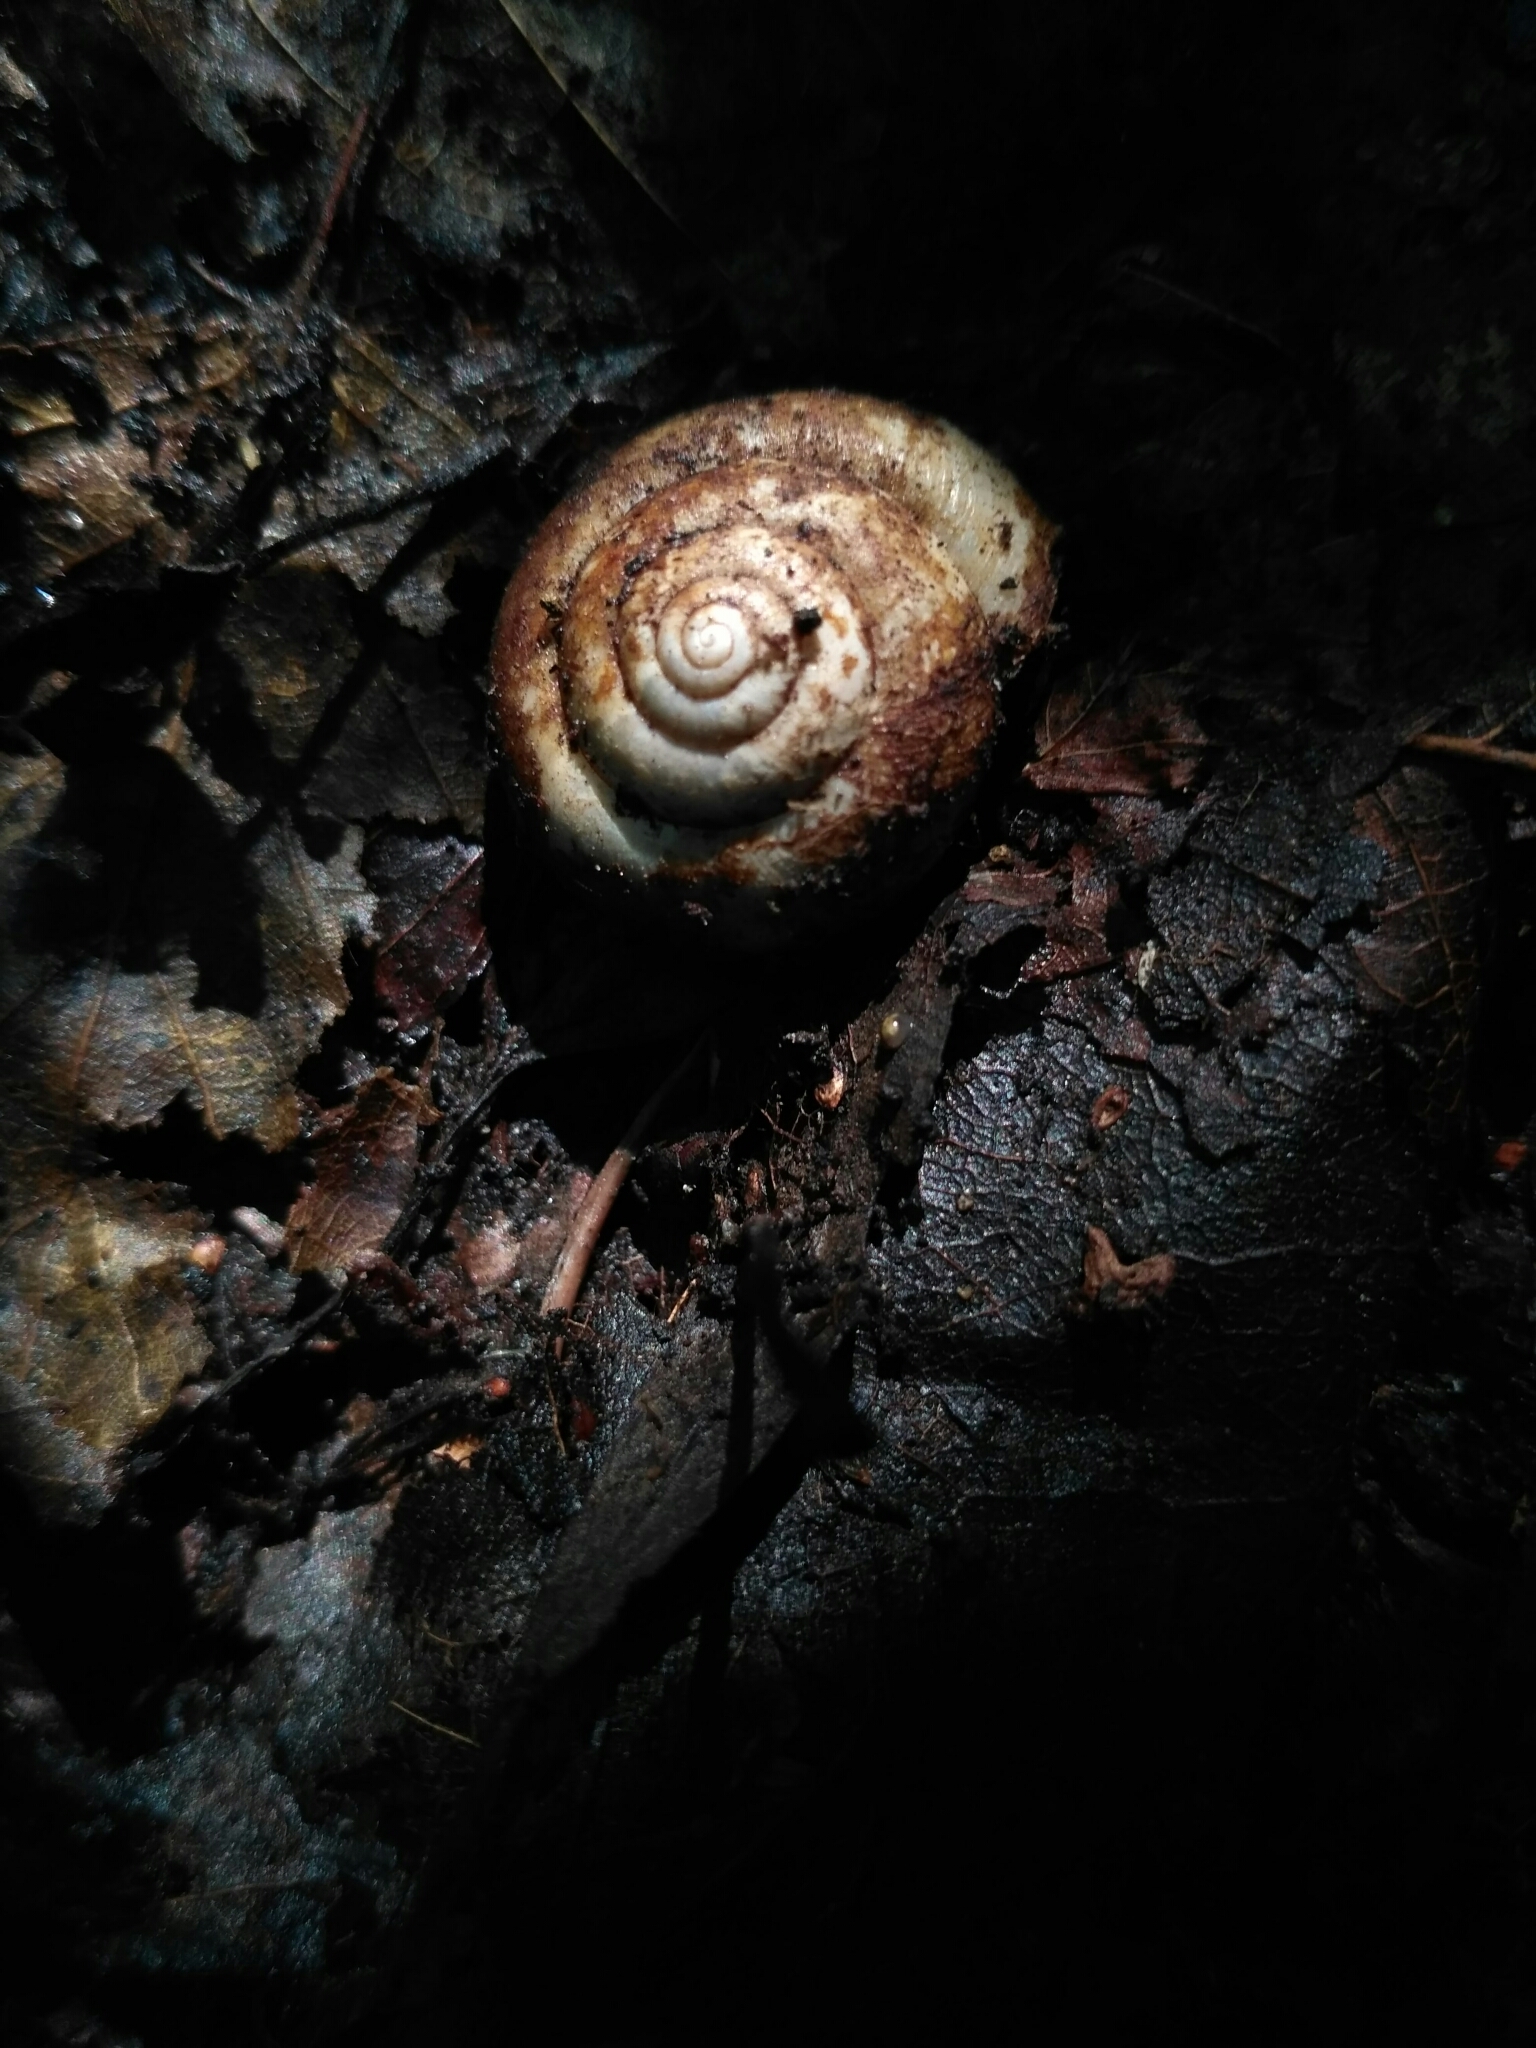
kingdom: Animalia
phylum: Mollusca
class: Gastropoda
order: Stylommatophora
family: Camaenidae
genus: Fruticicola
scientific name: Fruticicola fruticum
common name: Bush snail
